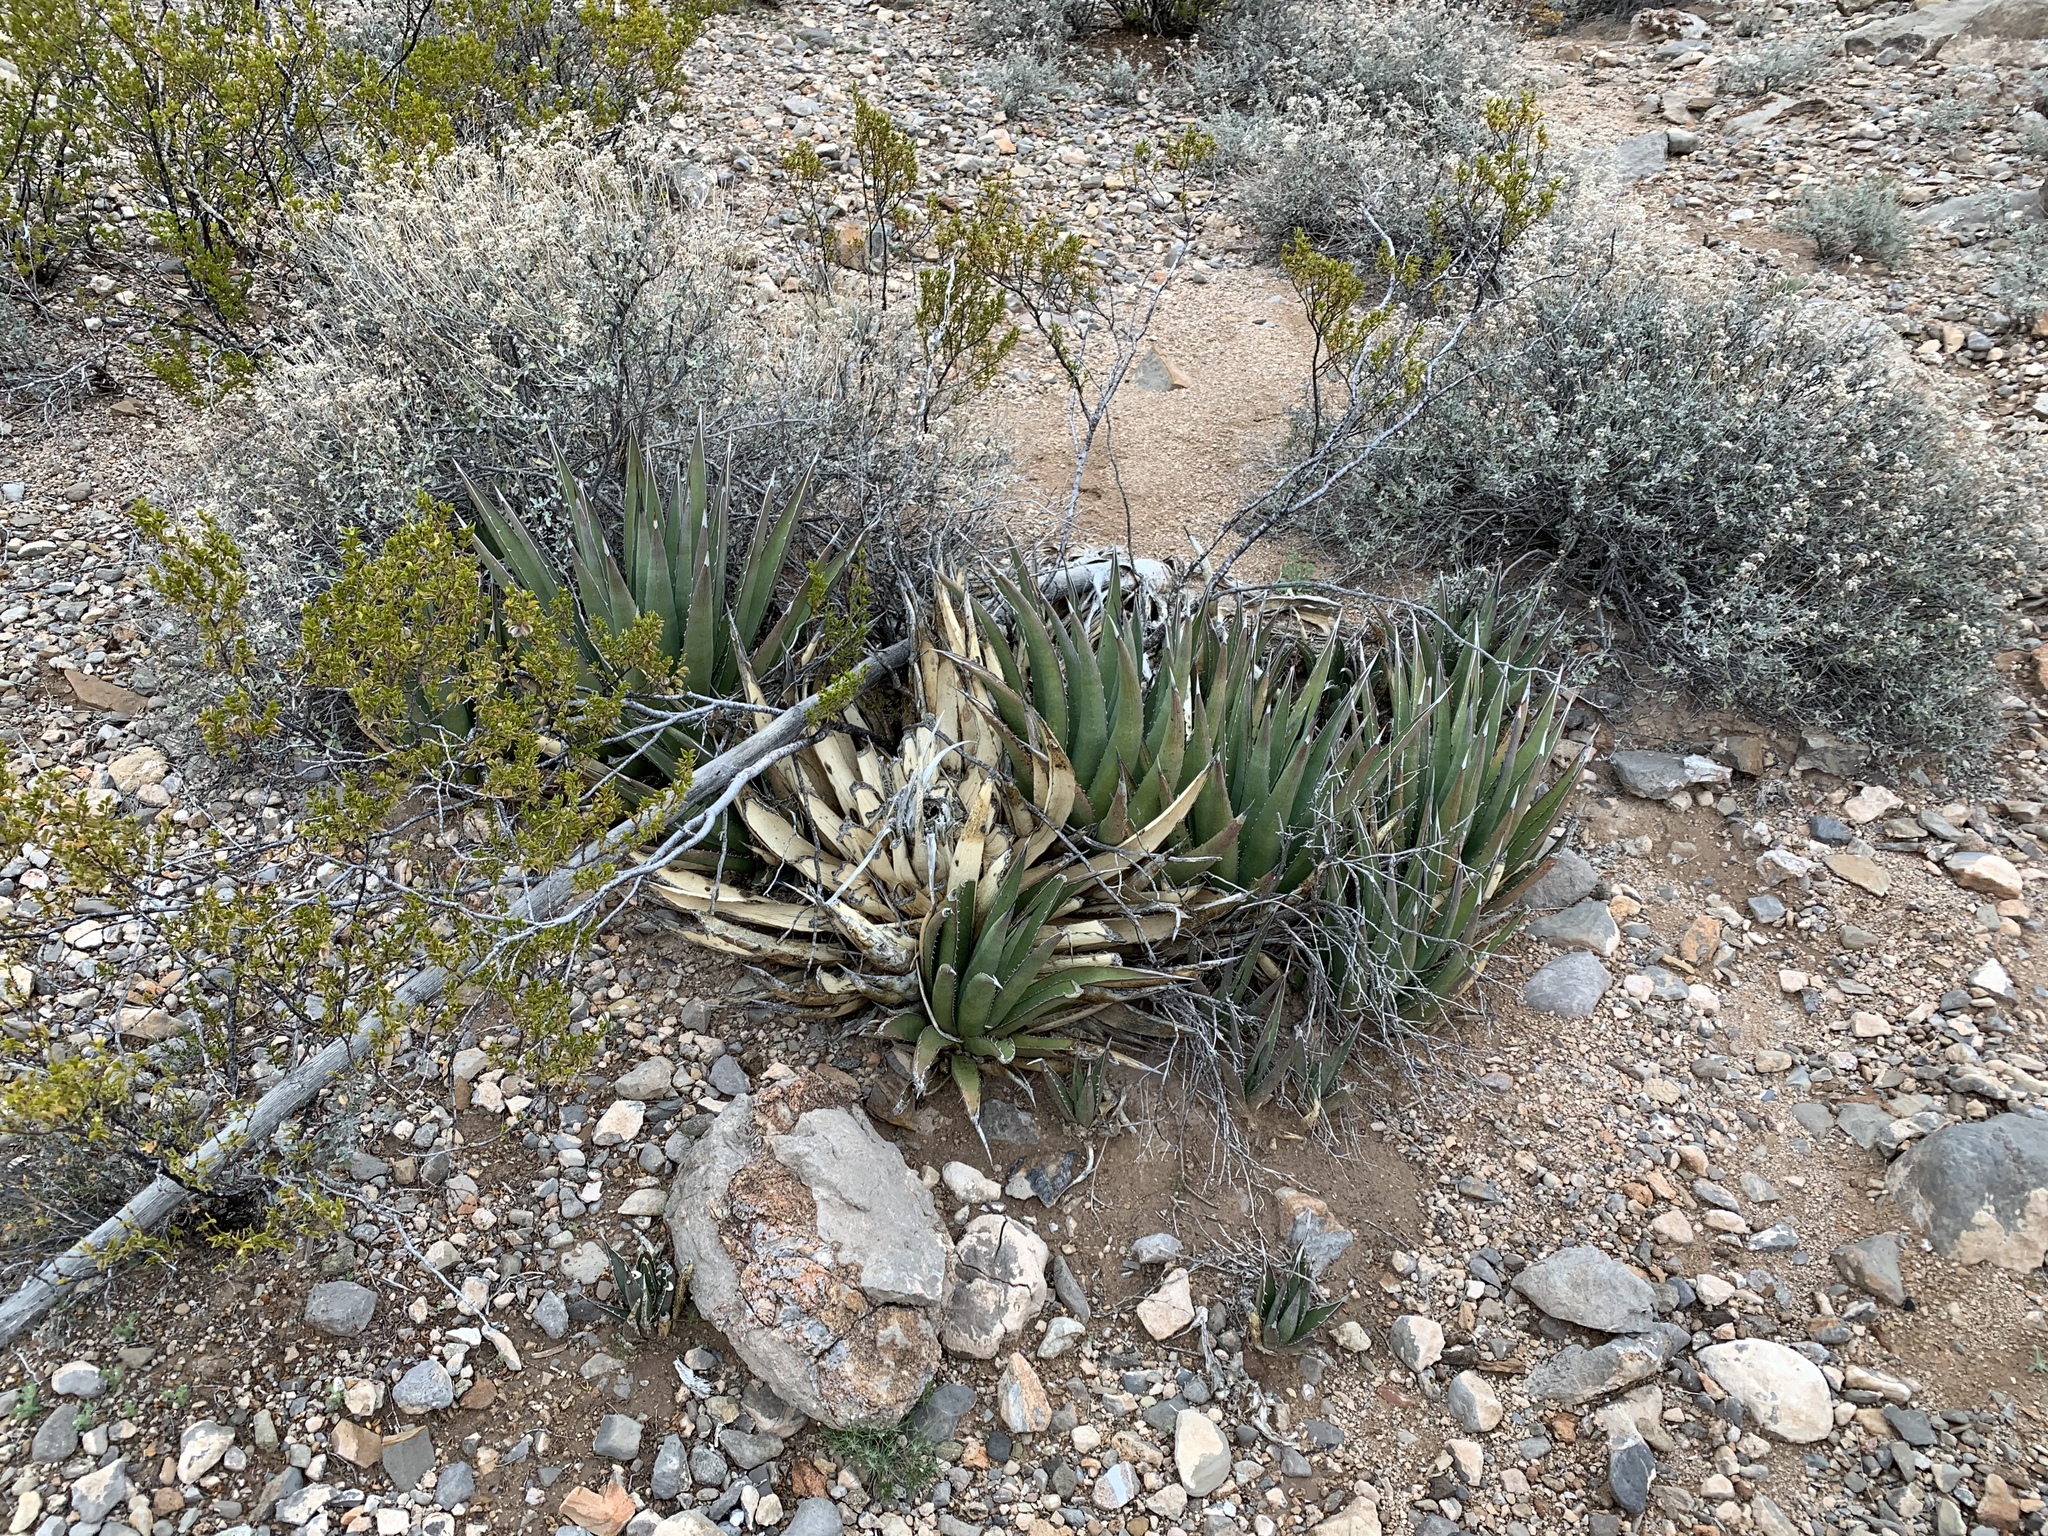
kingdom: Plantae
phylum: Tracheophyta
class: Liliopsida
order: Asparagales
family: Asparagaceae
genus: Agave
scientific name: Agave lechuguilla
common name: Lecheguilla agave
